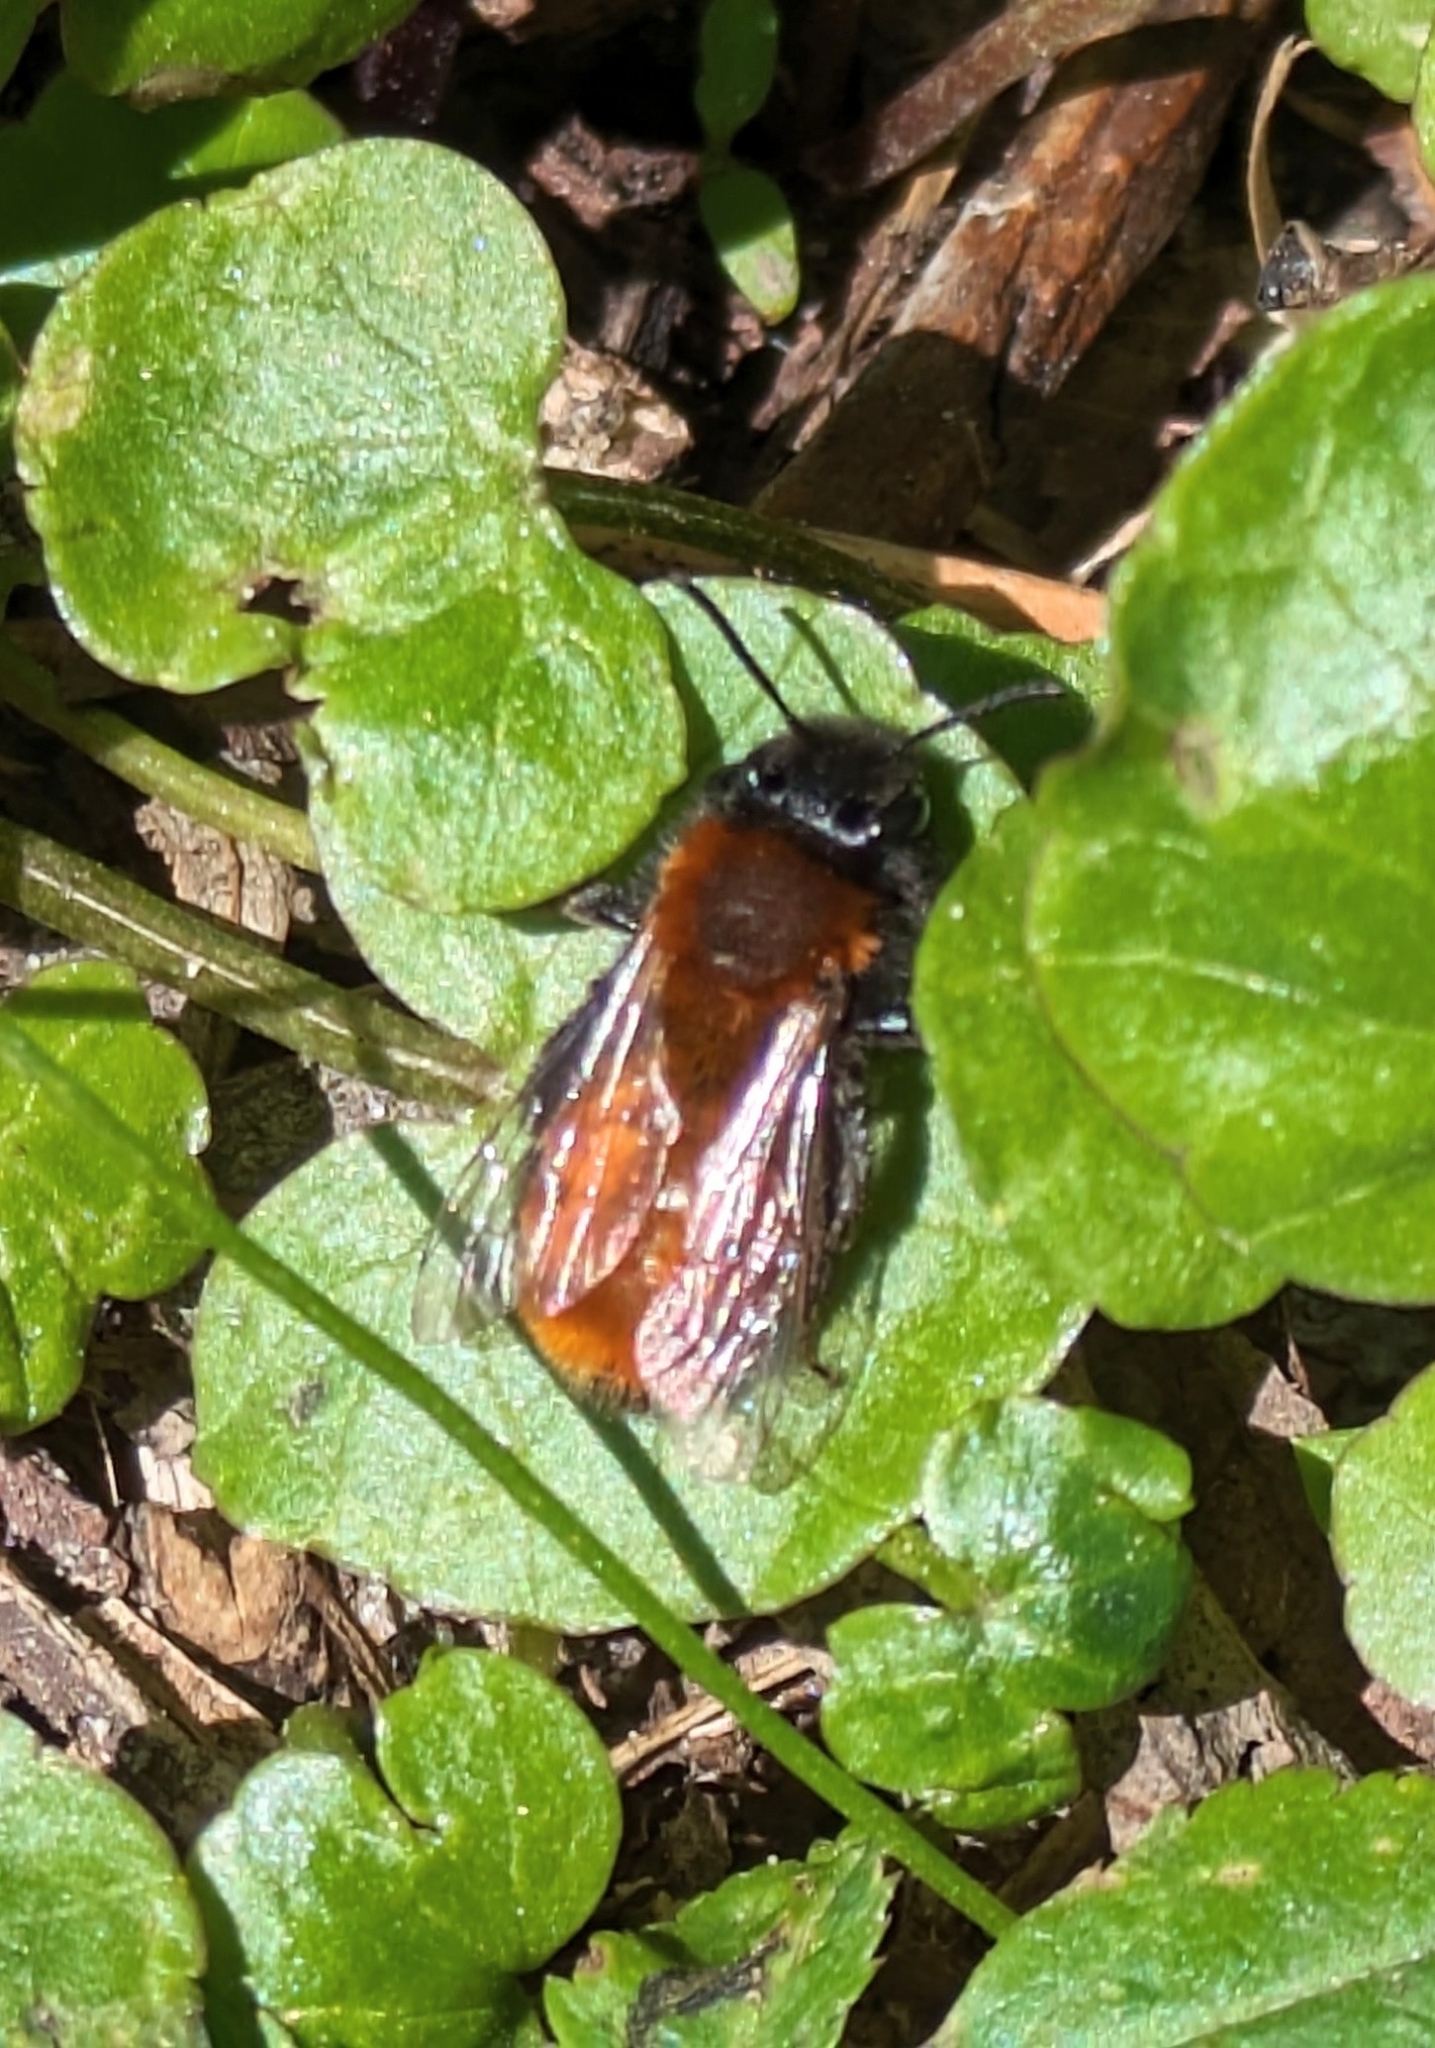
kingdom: Animalia
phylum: Arthropoda
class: Insecta
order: Hymenoptera
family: Andrenidae
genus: Andrena
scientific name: Andrena fulva
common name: Tawny mining bee
